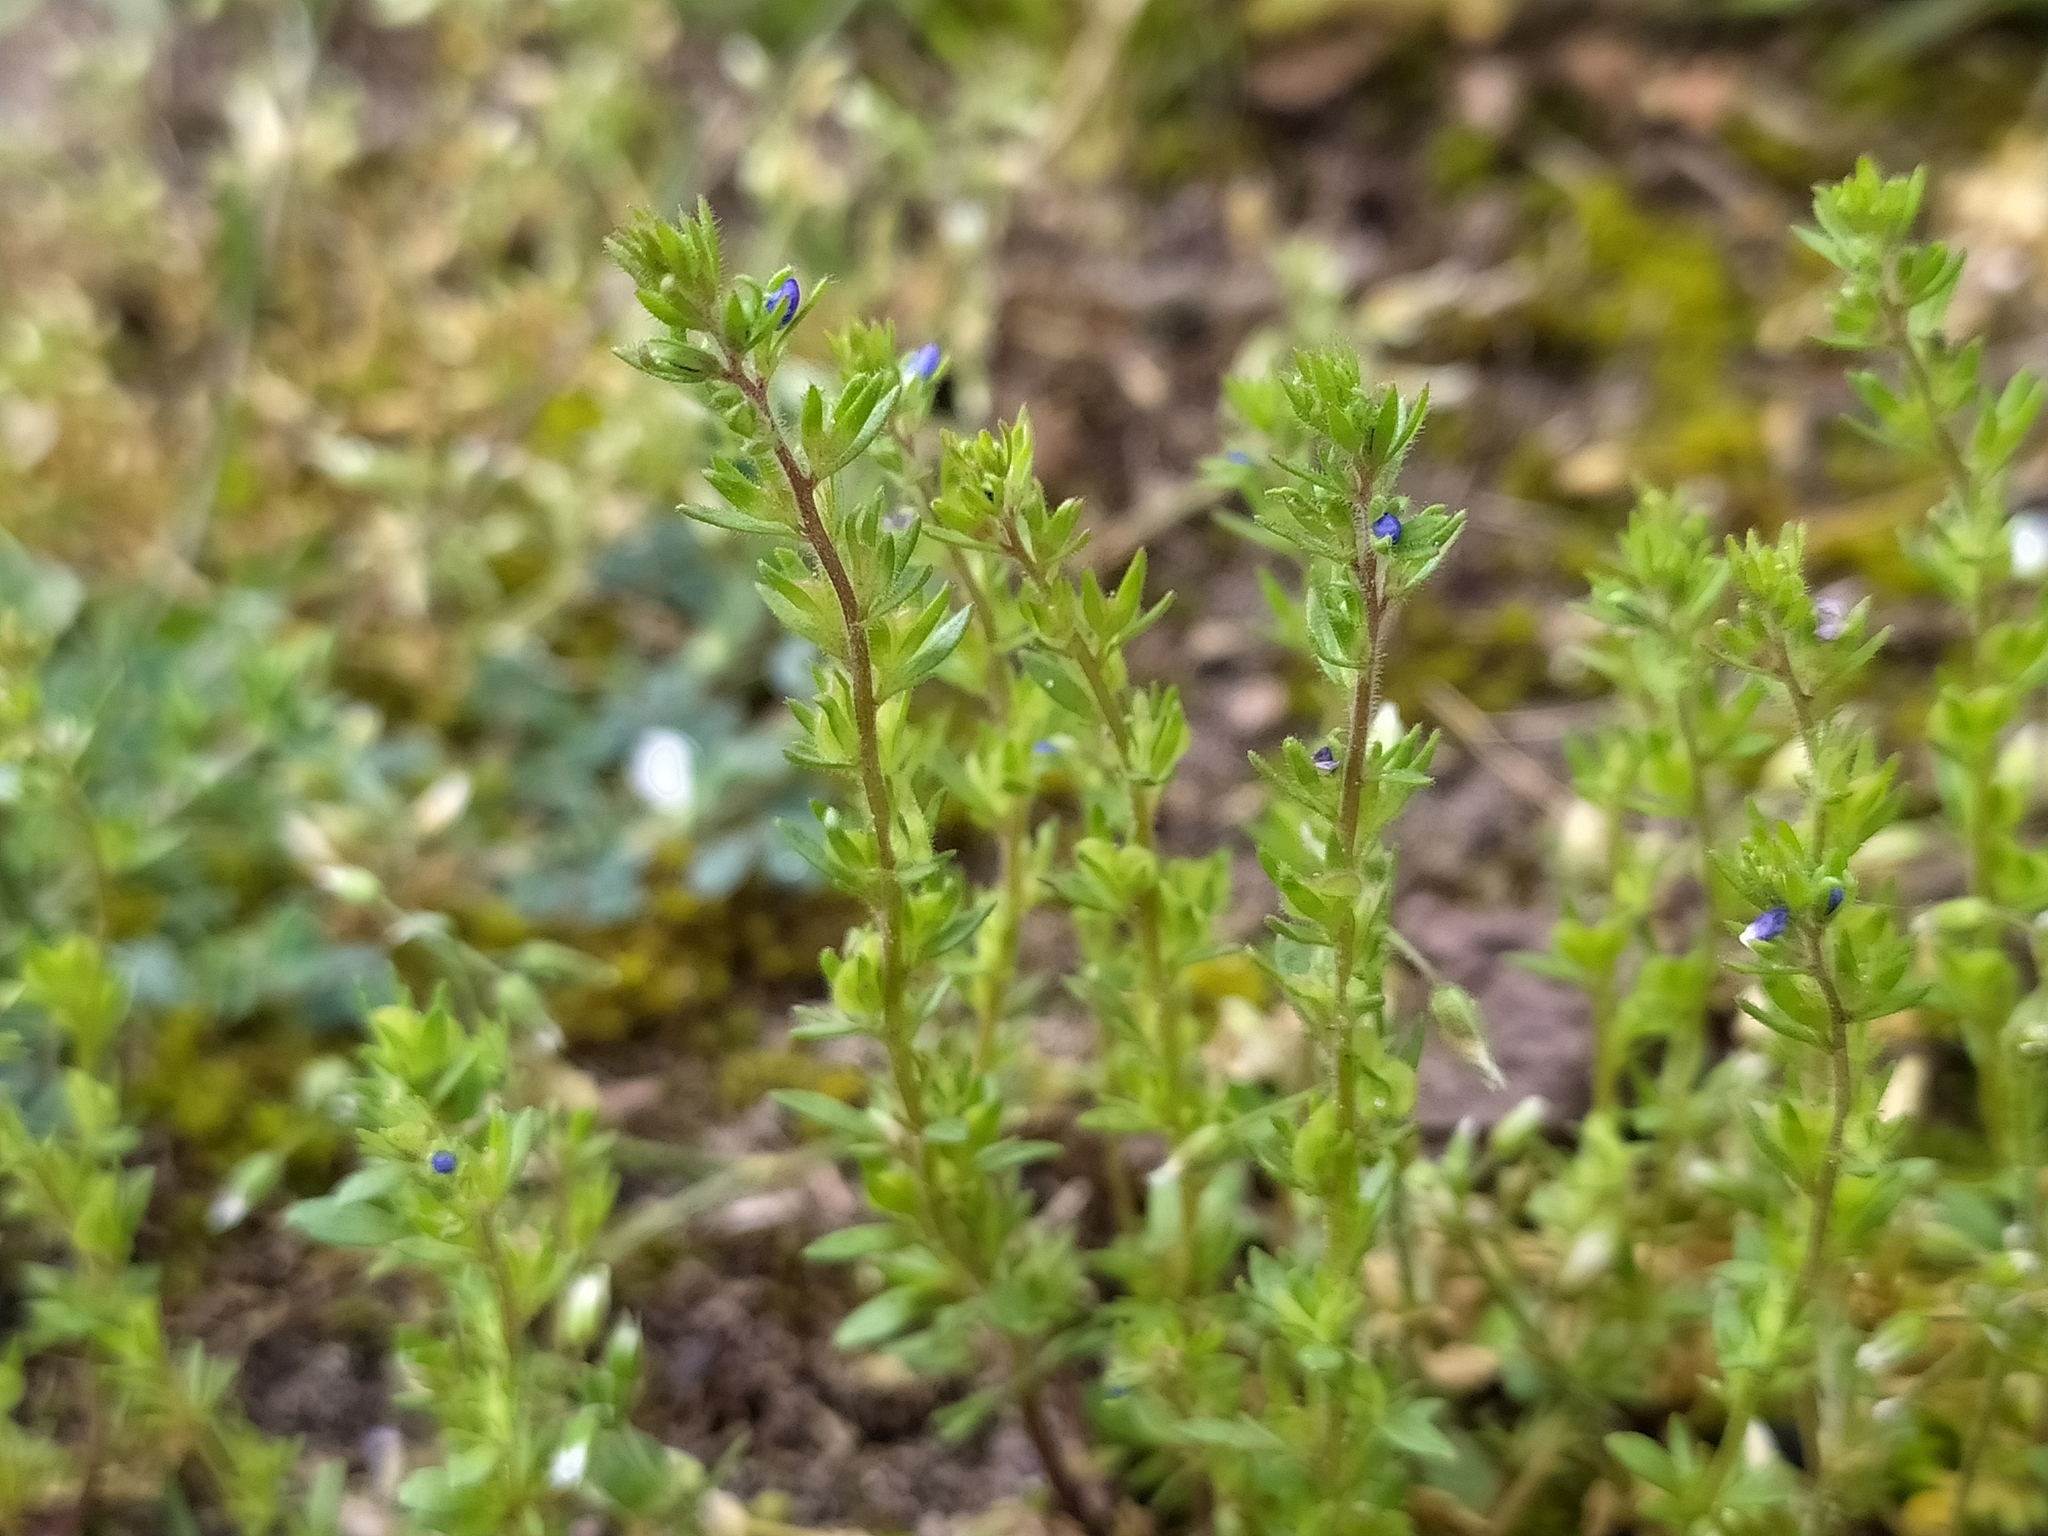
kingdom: Plantae
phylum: Tracheophyta
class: Magnoliopsida
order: Lamiales
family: Plantaginaceae
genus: Veronica
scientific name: Veronica verna
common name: Spring speedwell
